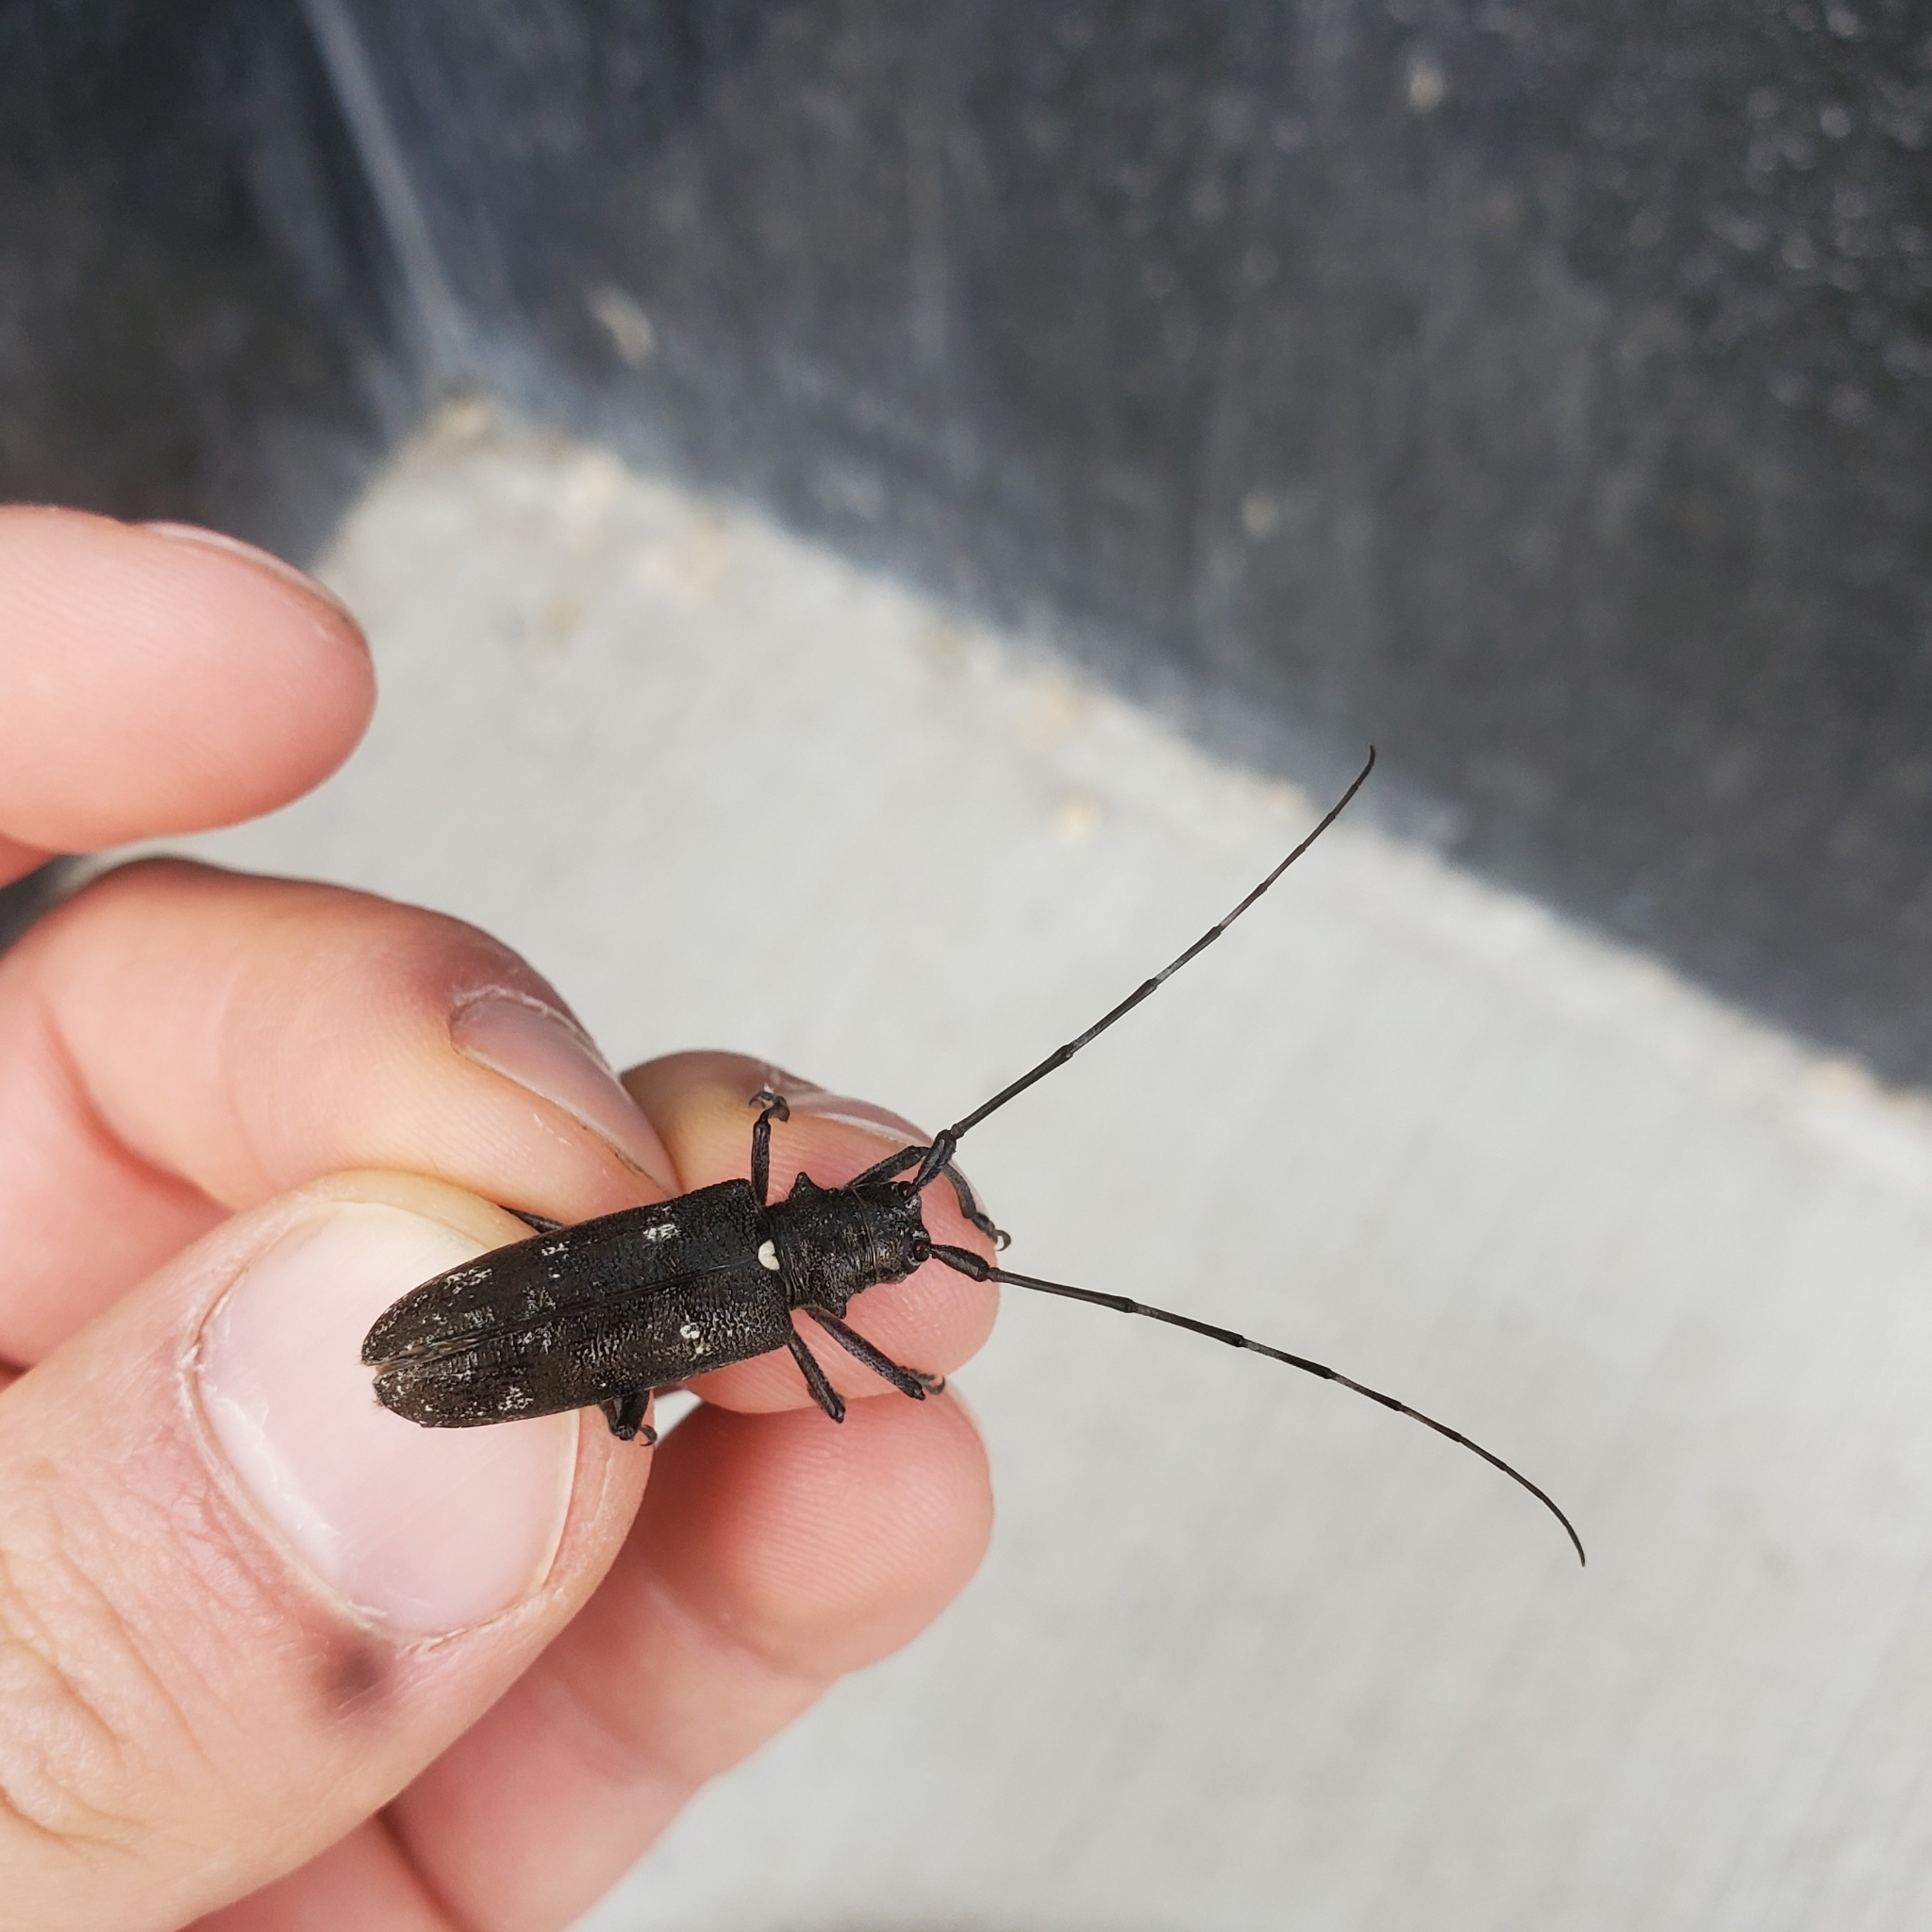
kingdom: Animalia
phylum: Arthropoda
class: Insecta
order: Coleoptera
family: Cerambycidae
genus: Monochamus
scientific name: Monochamus scutellatus
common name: White-spotted sawyer beetle
